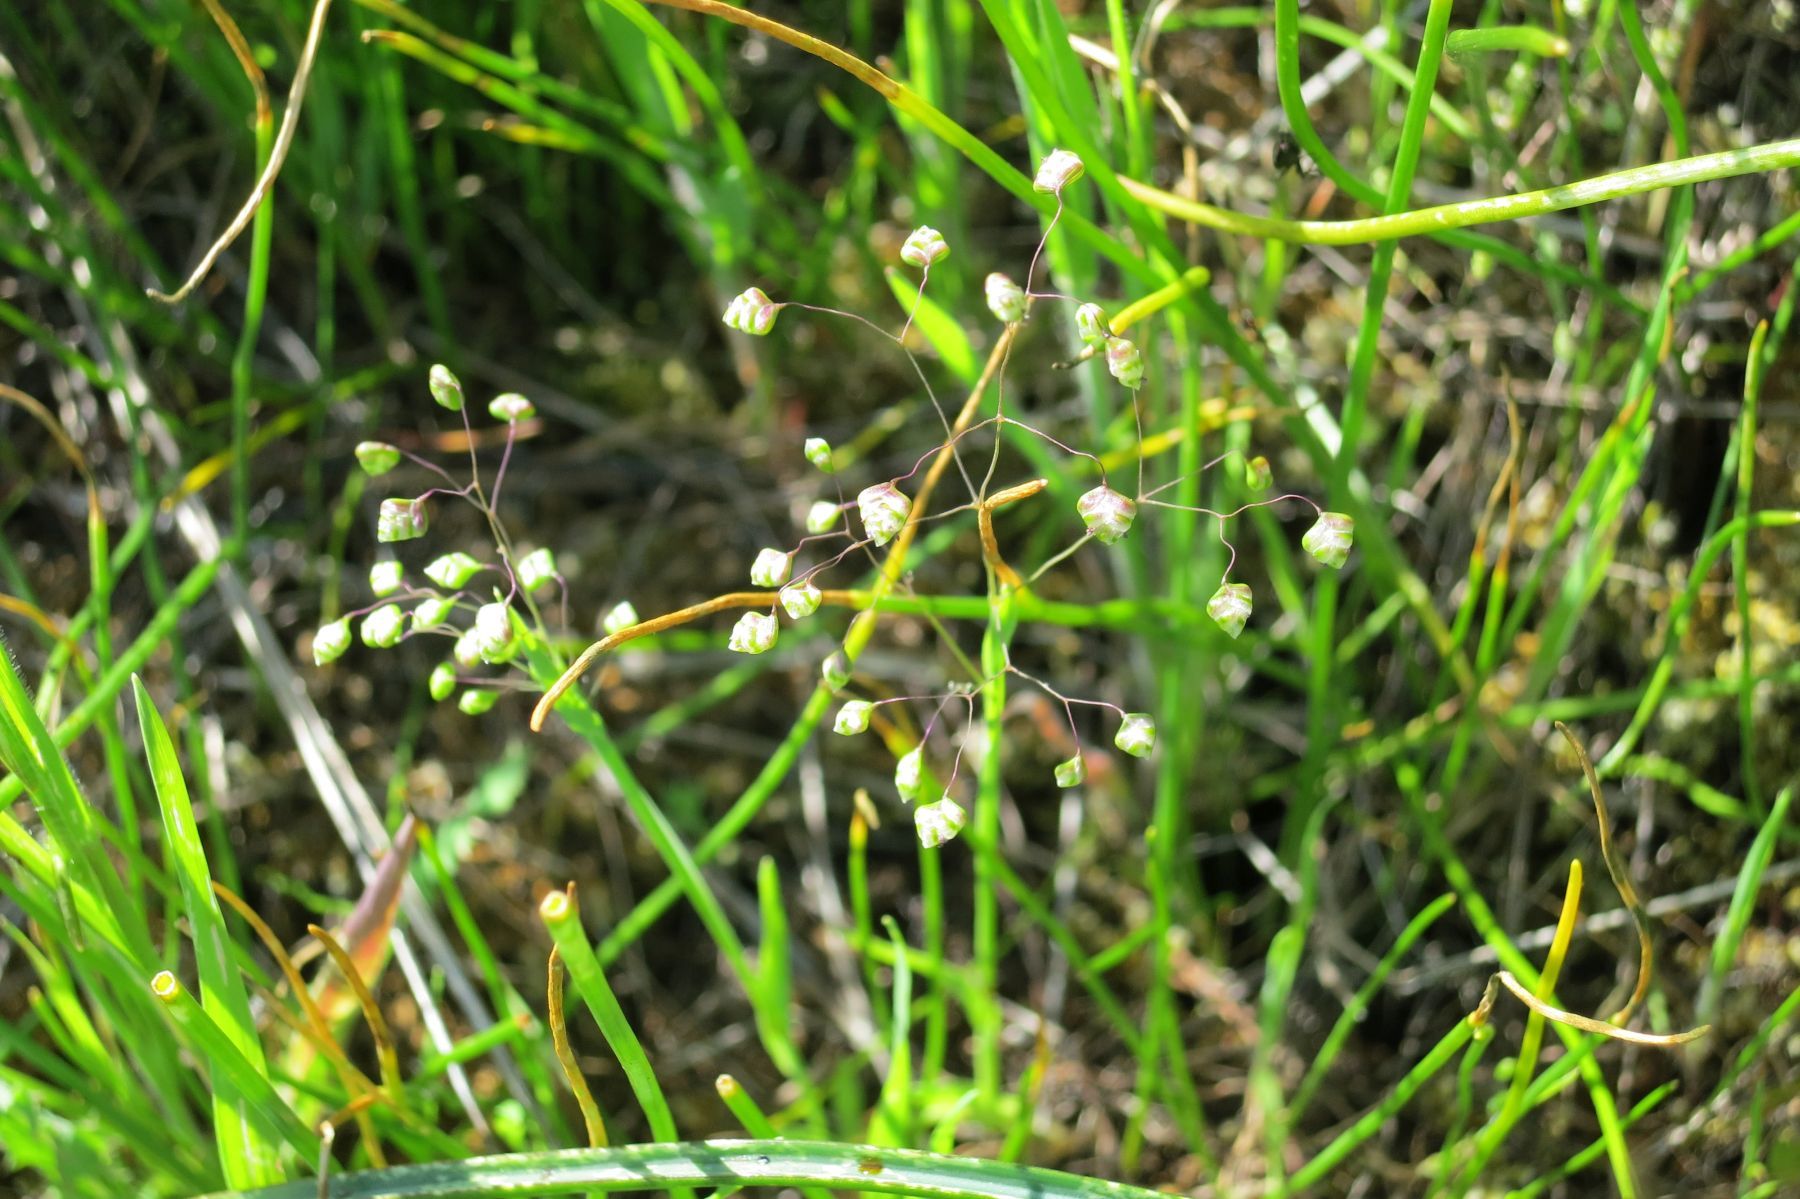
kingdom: Plantae
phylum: Tracheophyta
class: Liliopsida
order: Poales
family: Poaceae
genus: Briza
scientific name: Briza minor
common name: Lesser quaking-grass
